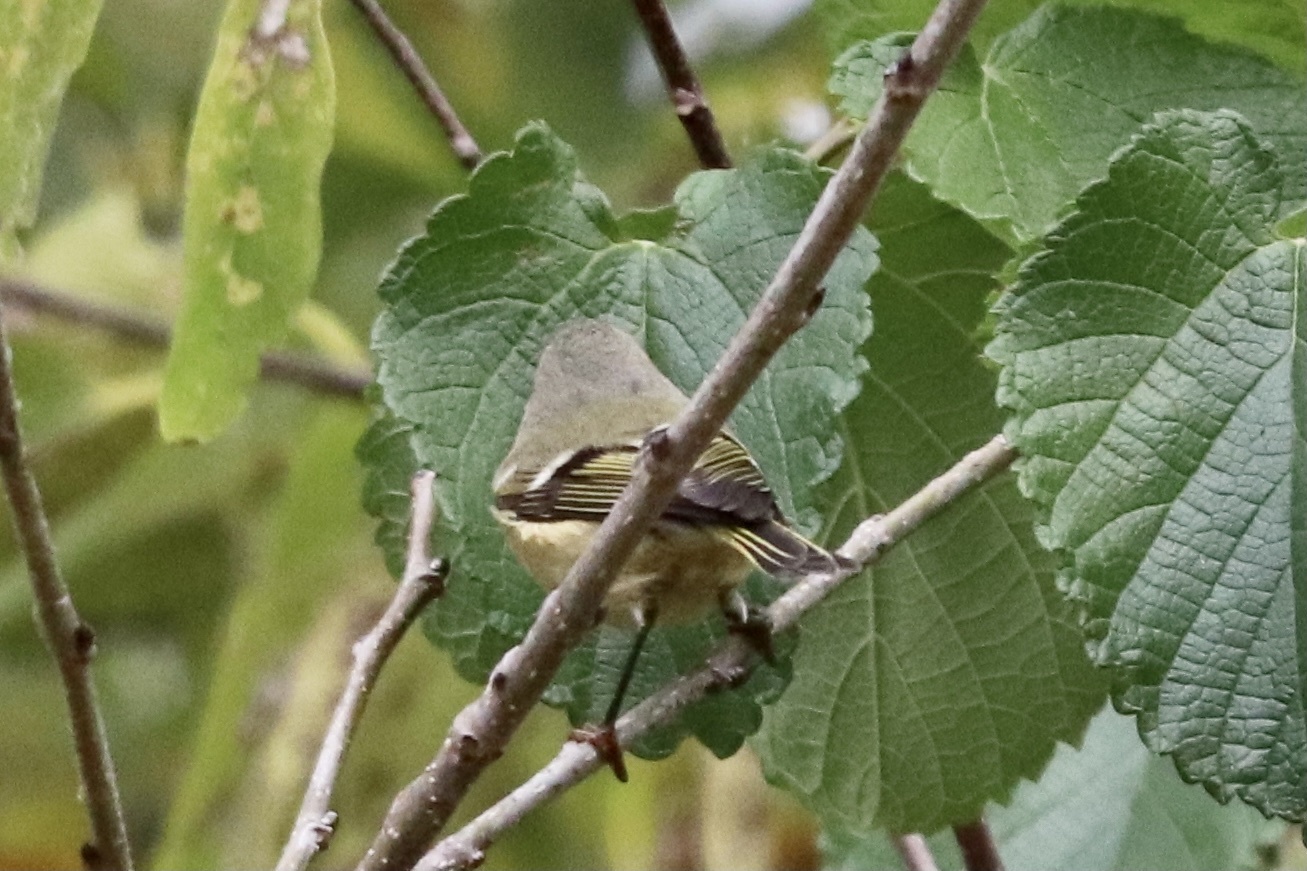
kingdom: Animalia
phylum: Chordata
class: Aves
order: Passeriformes
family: Regulidae
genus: Regulus
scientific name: Regulus calendula
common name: Ruby-crowned kinglet
